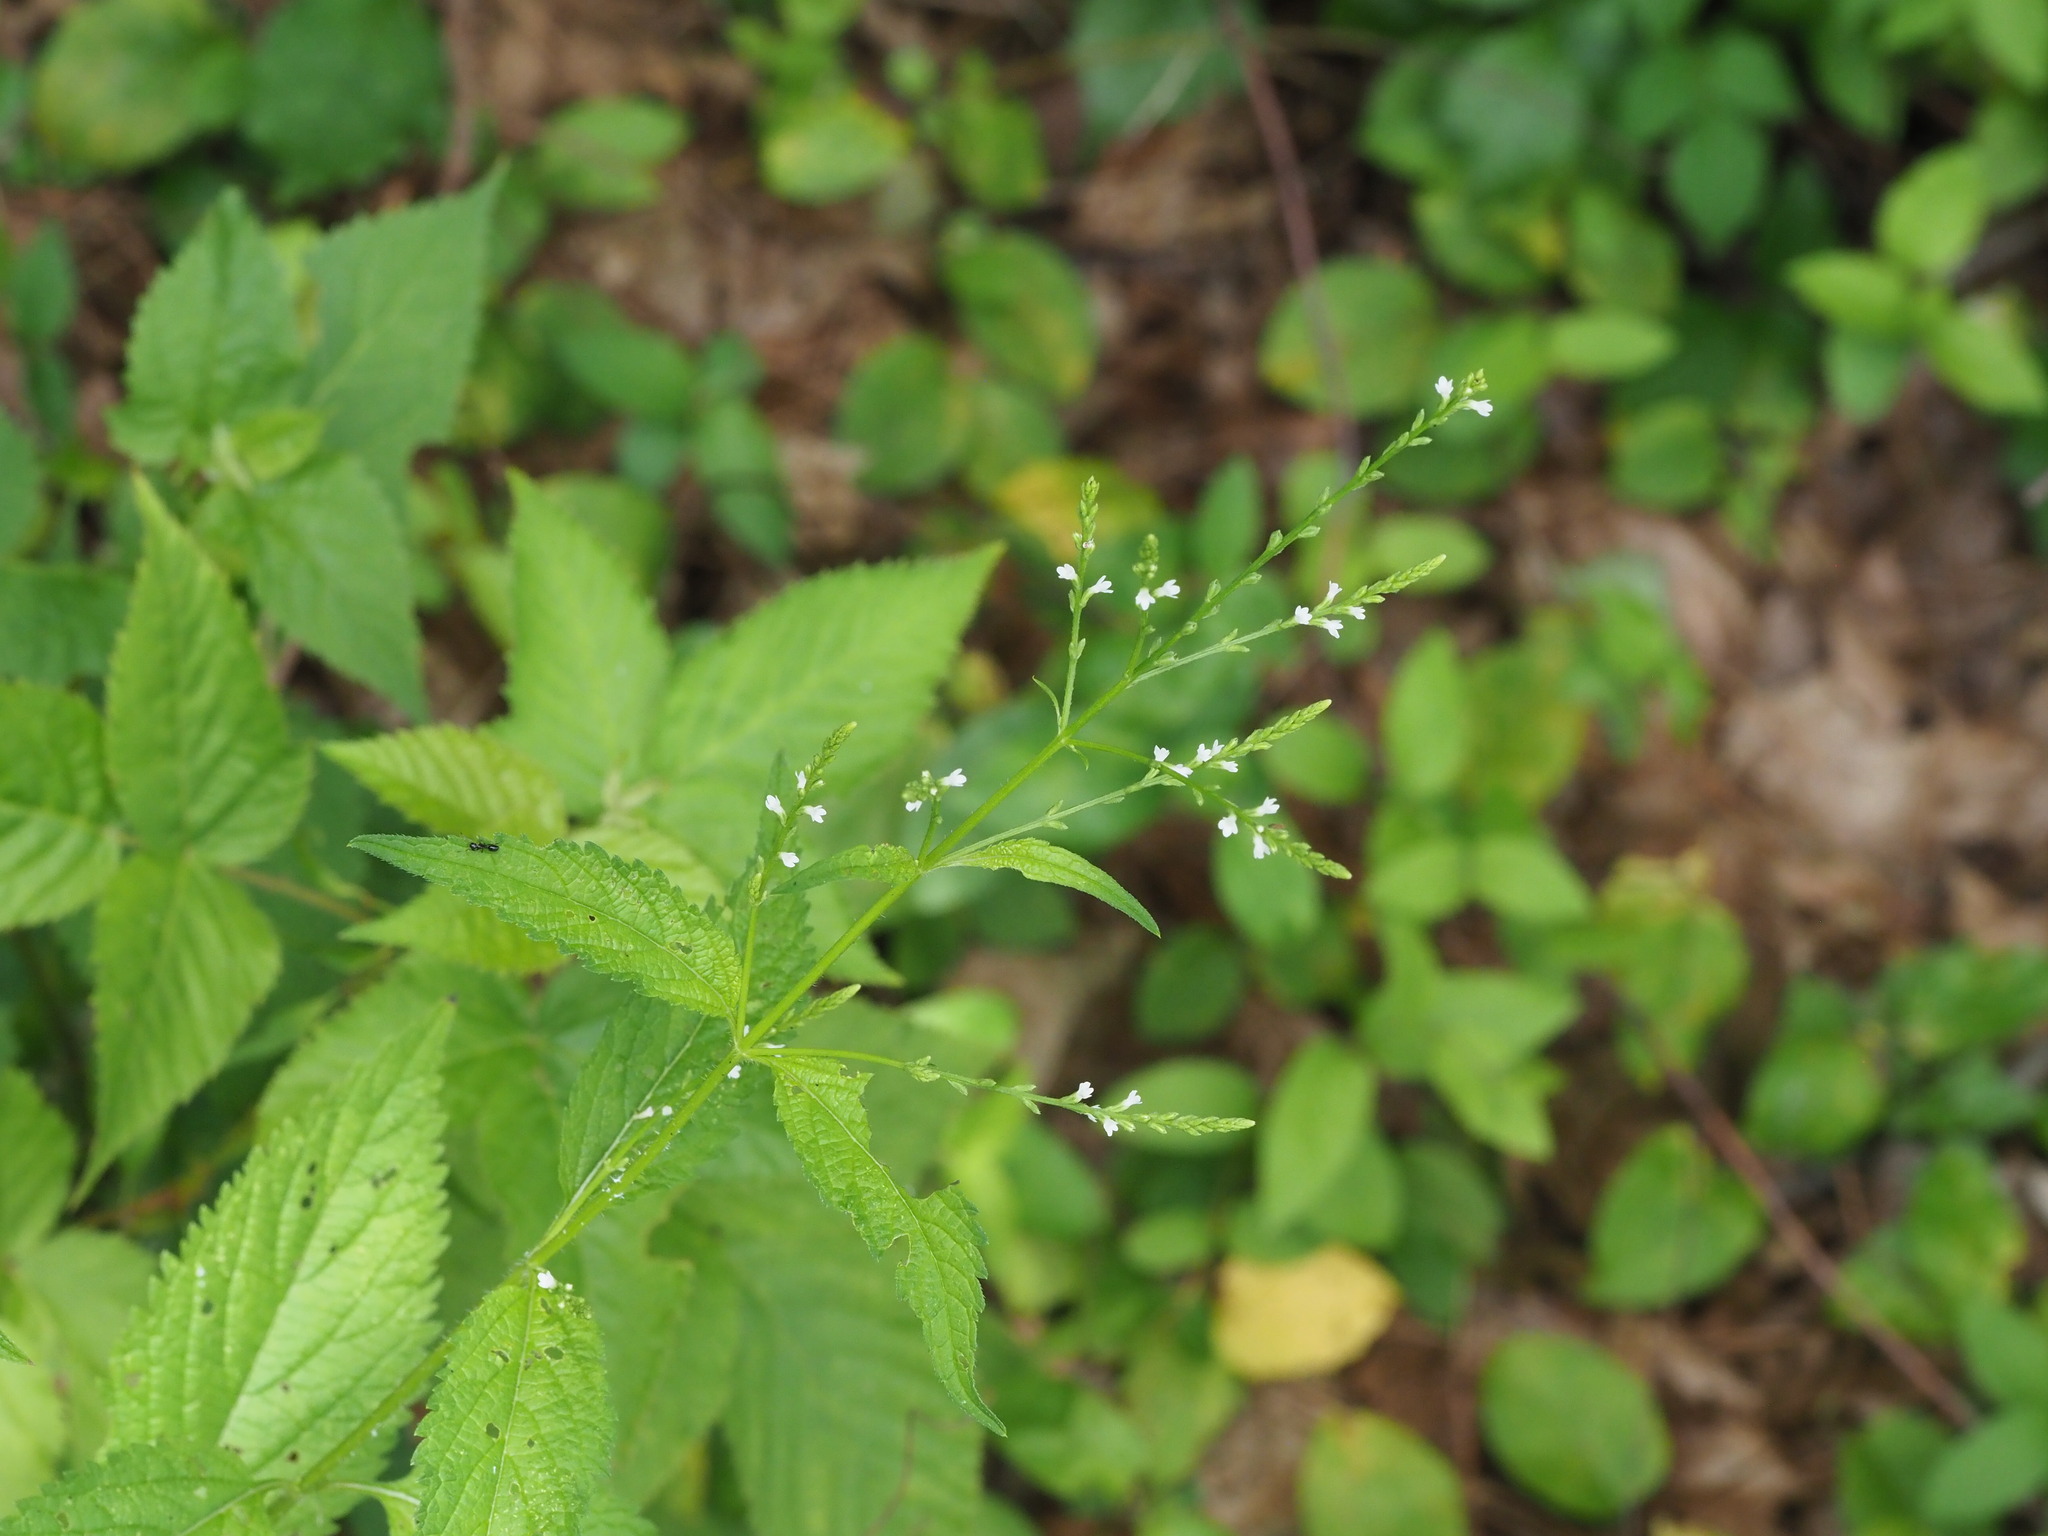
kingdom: Plantae
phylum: Tracheophyta
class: Magnoliopsida
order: Lamiales
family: Verbenaceae
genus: Verbena
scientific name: Verbena urticifolia
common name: Nettle-leaved vervain
